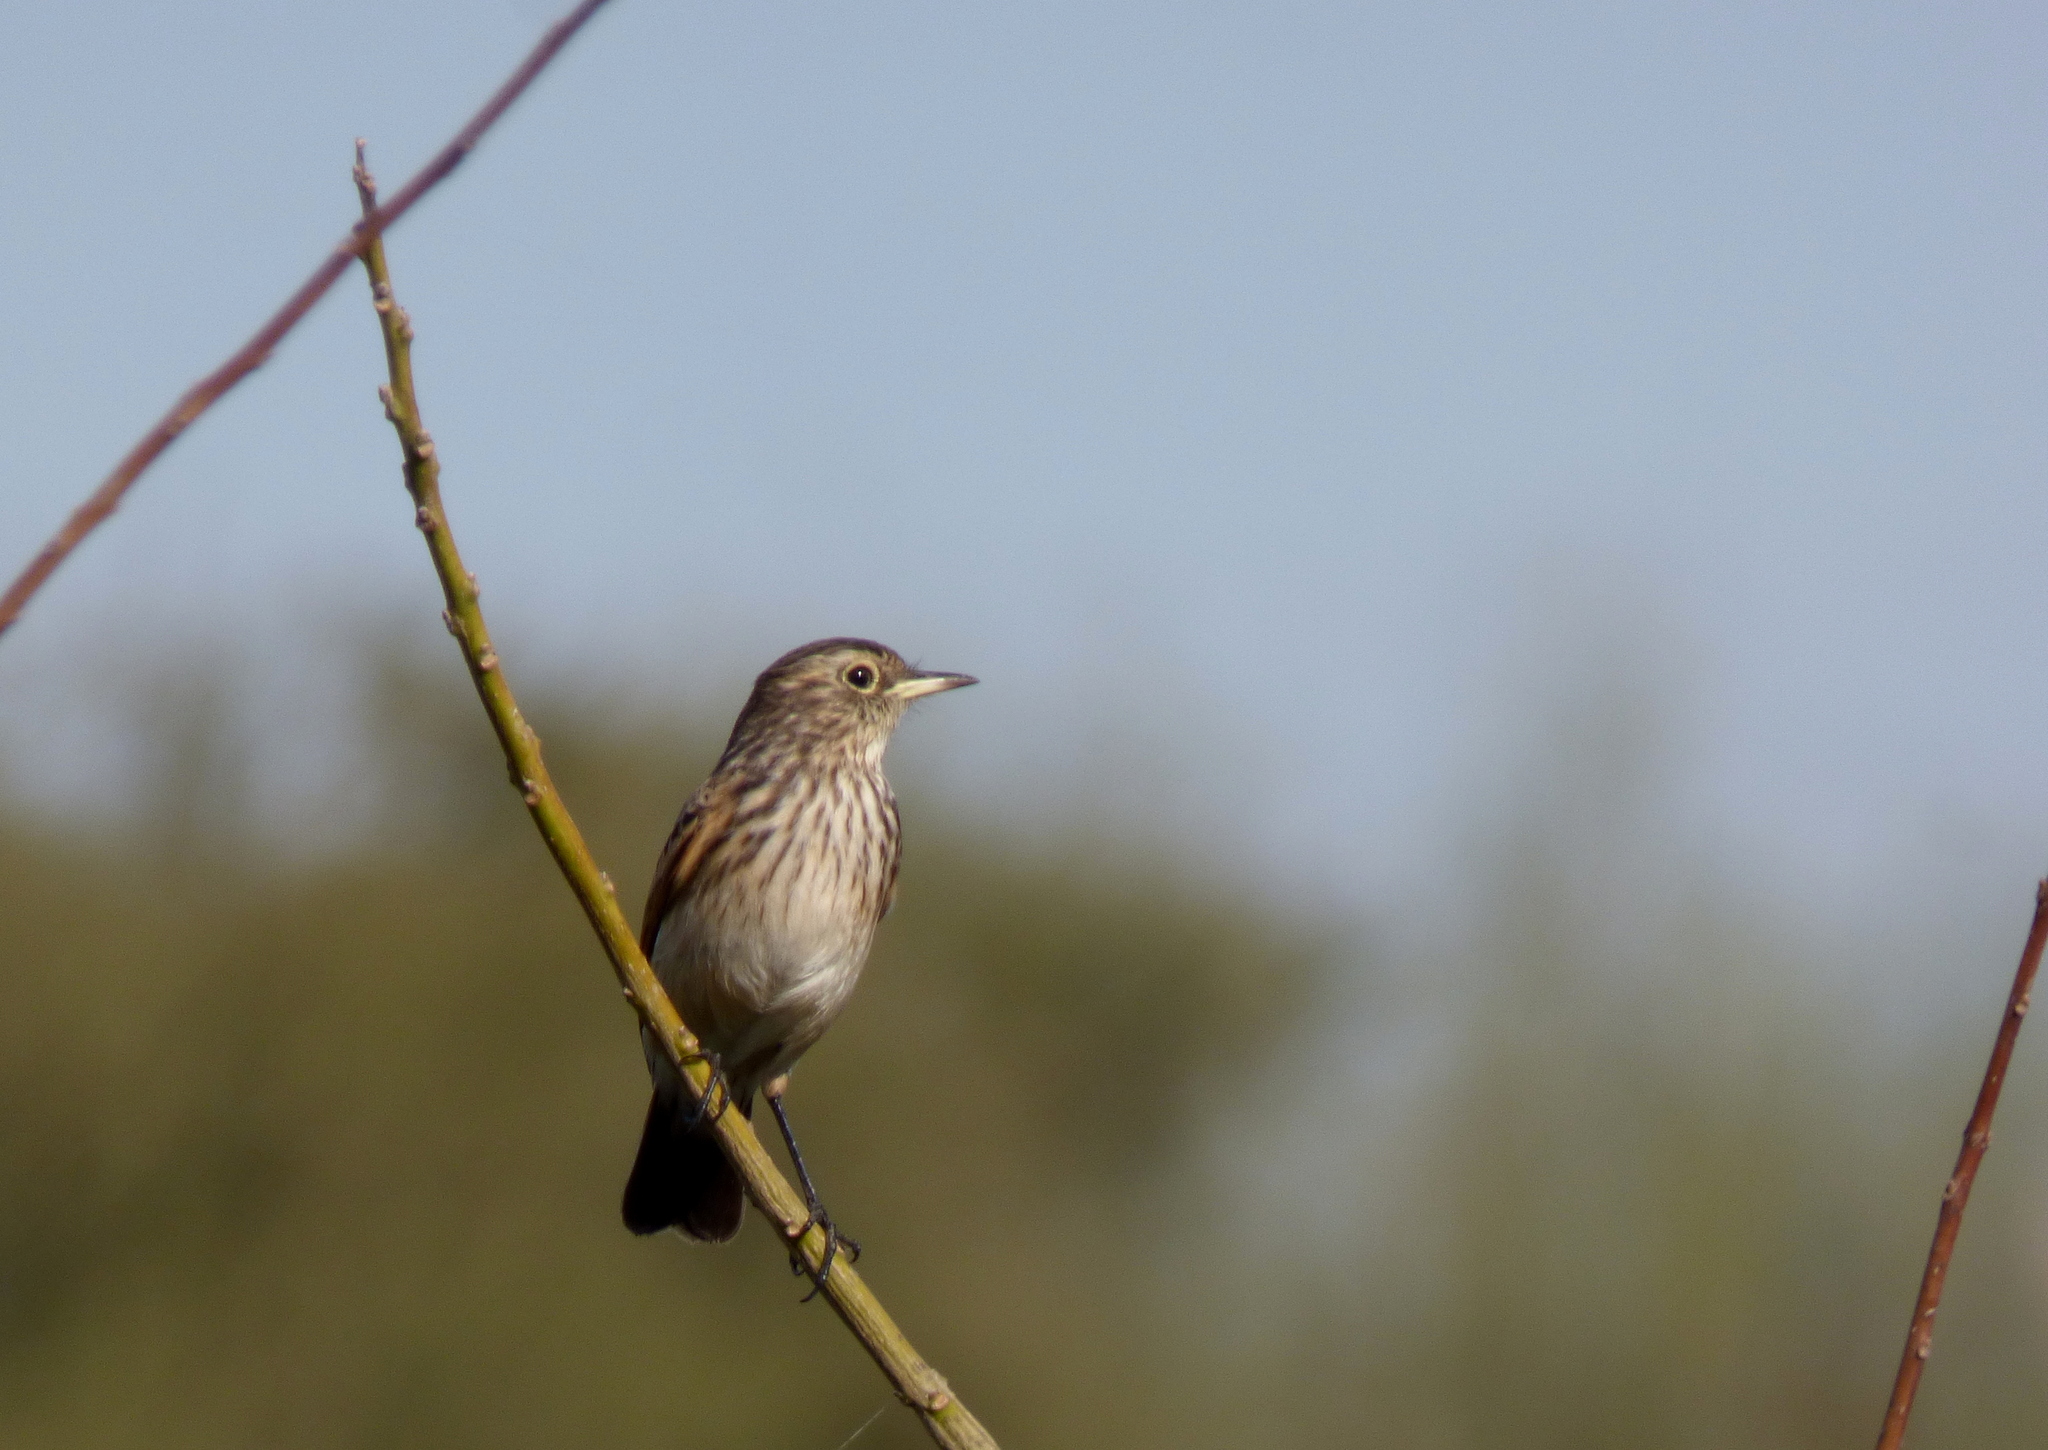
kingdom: Animalia
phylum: Chordata
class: Aves
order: Passeriformes
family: Tyrannidae
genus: Hymenops
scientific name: Hymenops perspicillatus
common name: Spectacled tyrant
